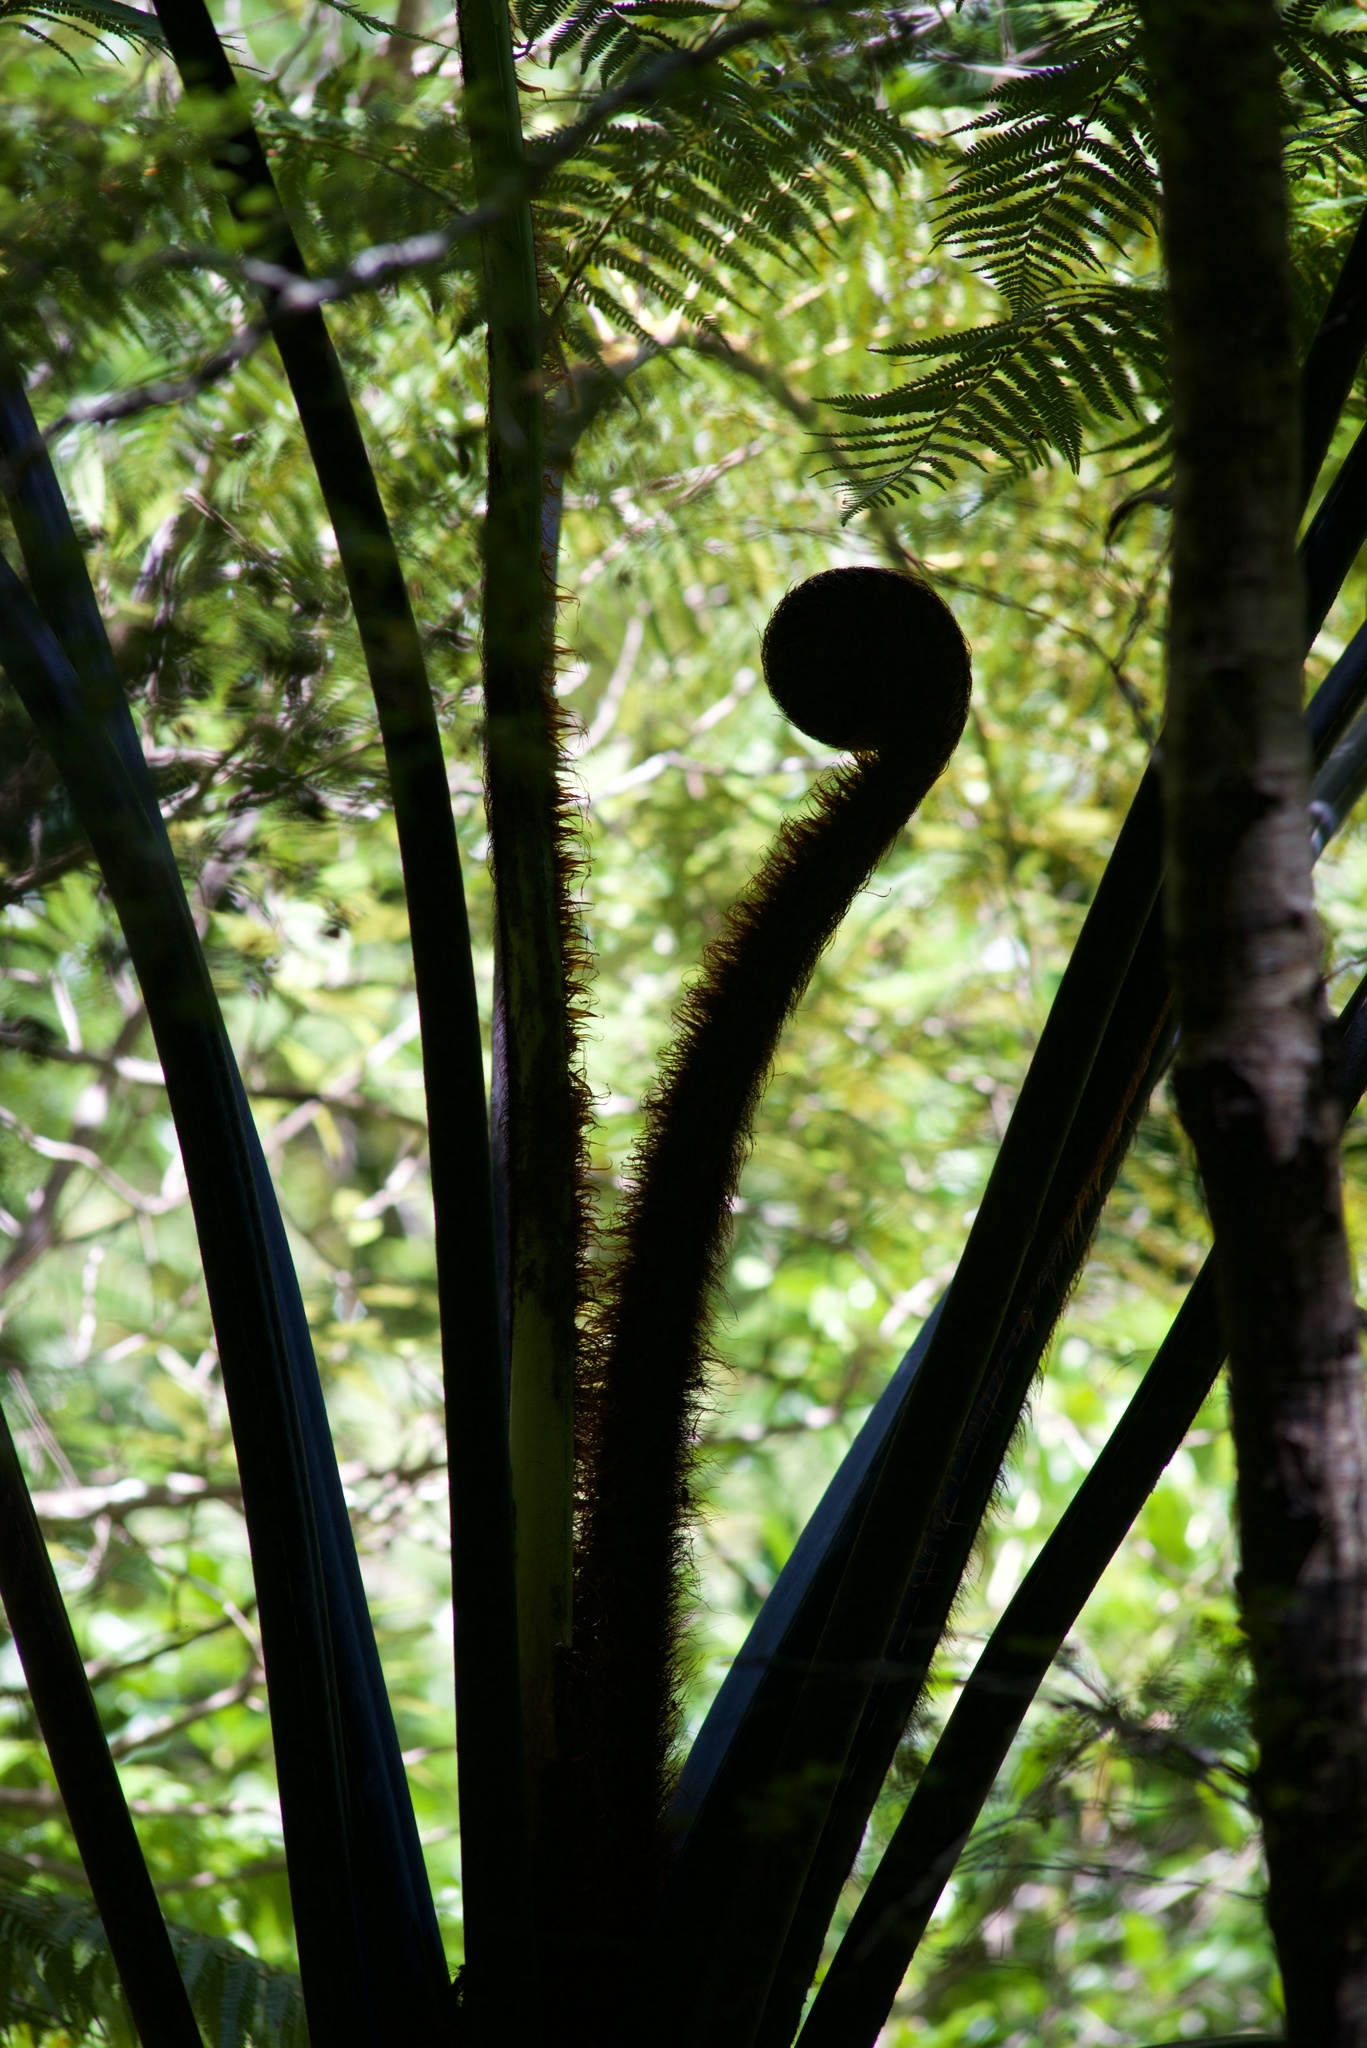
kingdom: Plantae
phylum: Tracheophyta
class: Polypodiopsida
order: Cyatheales
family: Cyatheaceae
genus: Sphaeropteris
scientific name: Sphaeropteris medullaris
